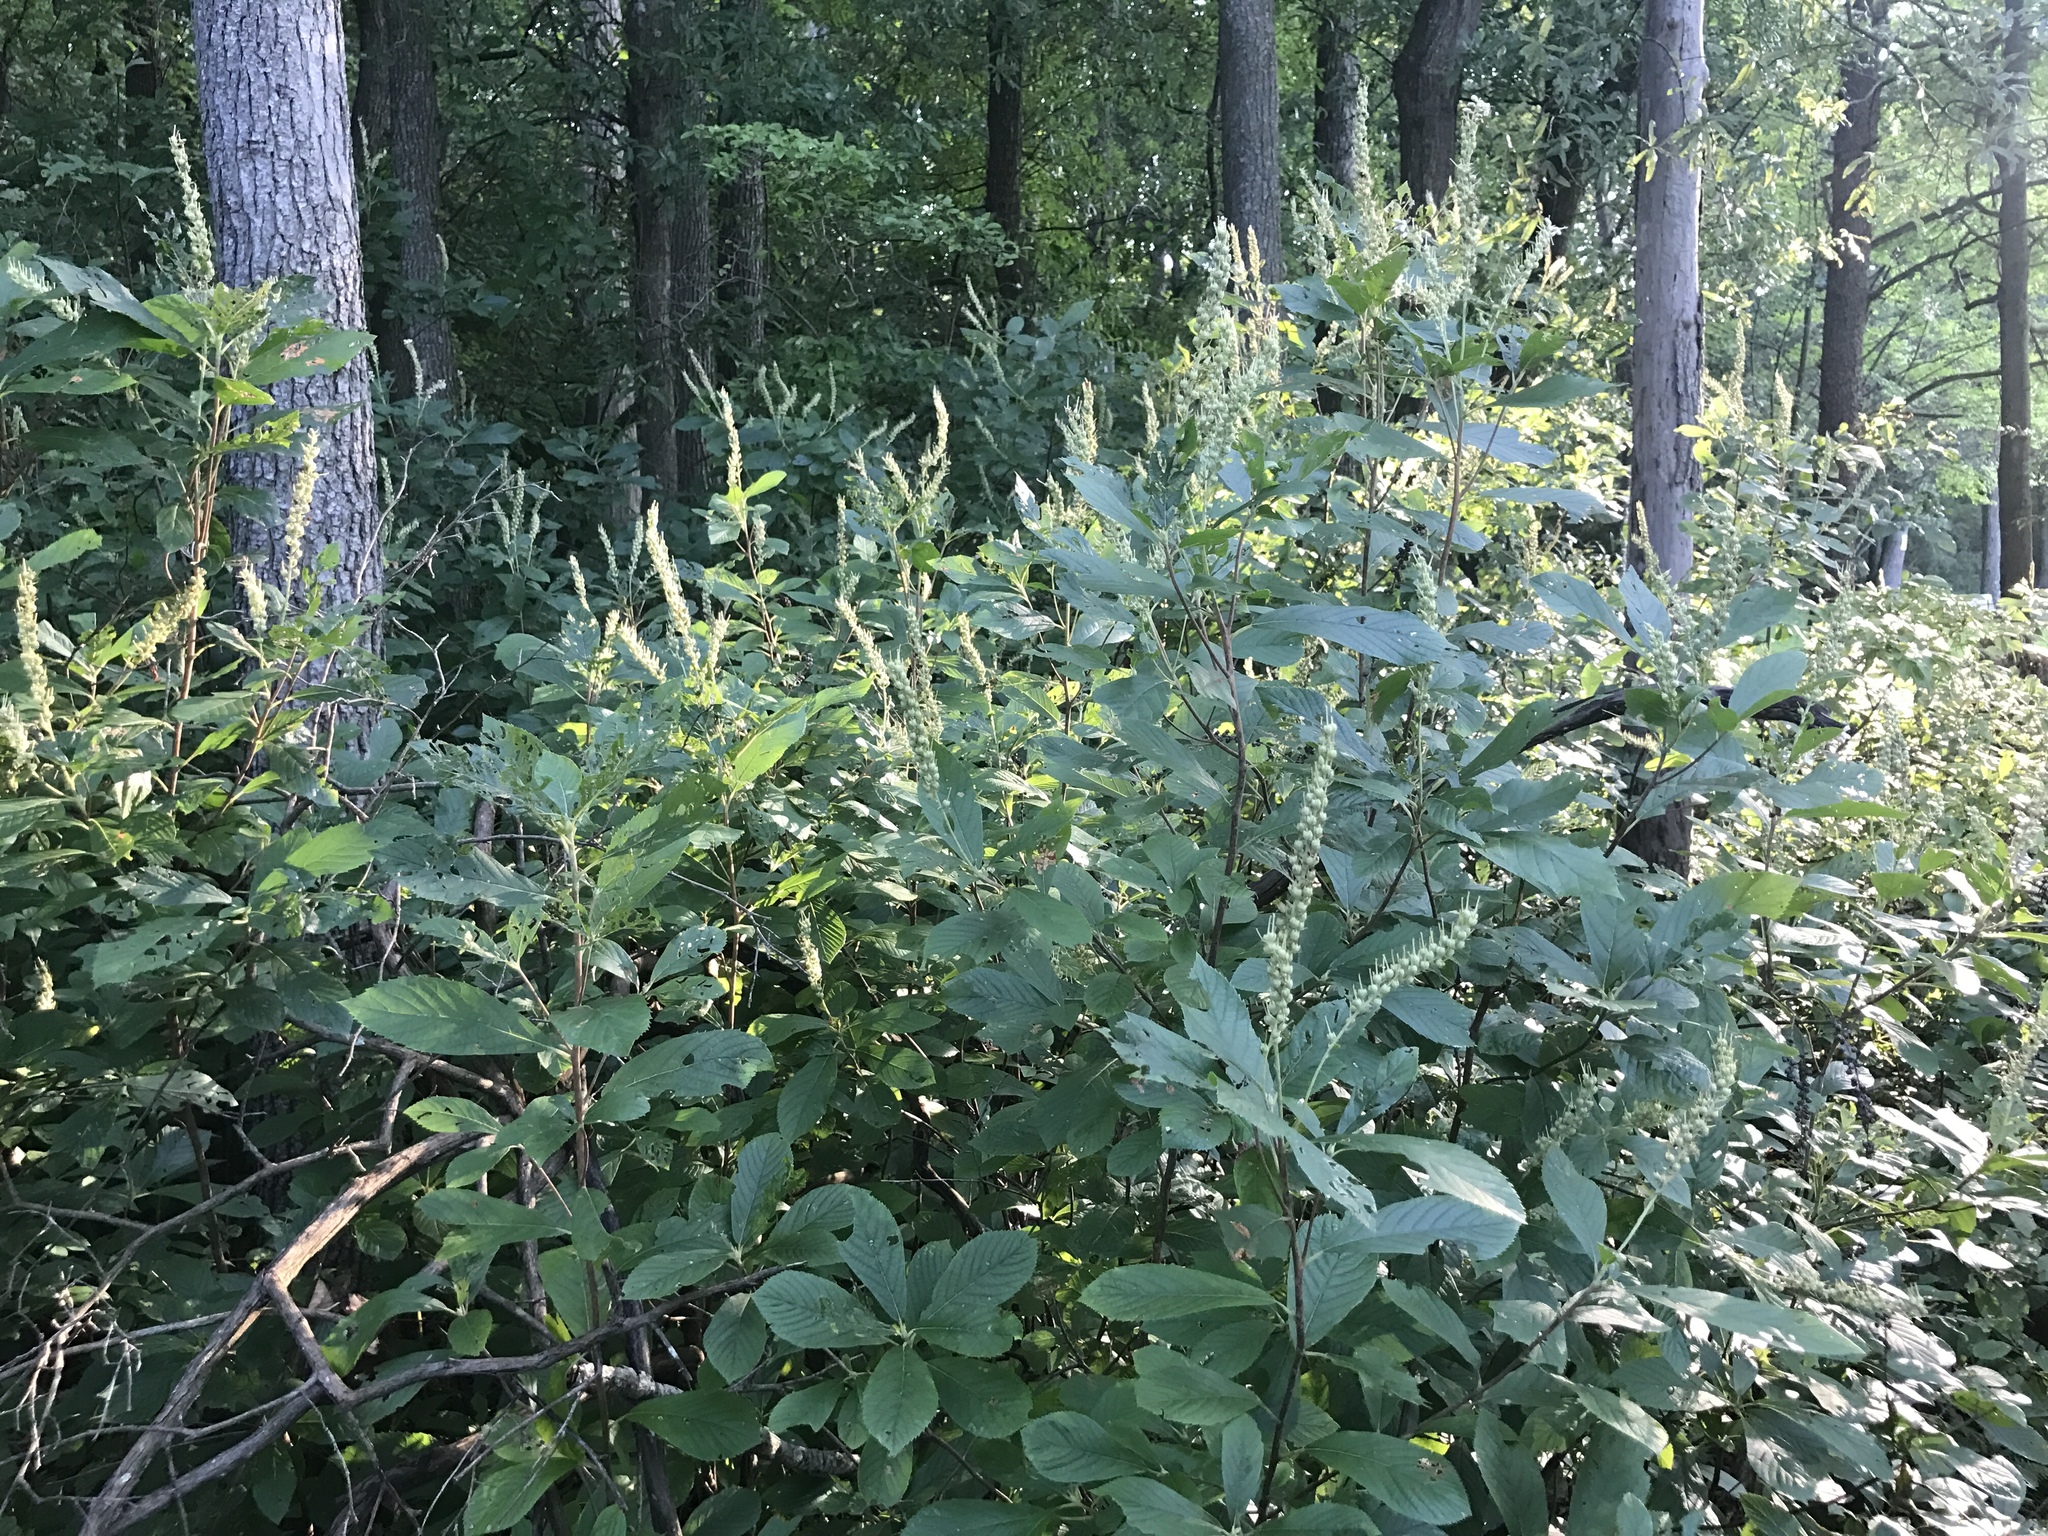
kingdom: Plantae
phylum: Tracheophyta
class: Magnoliopsida
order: Ericales
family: Clethraceae
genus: Clethra
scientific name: Clethra alnifolia
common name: Sweet pepperbush
